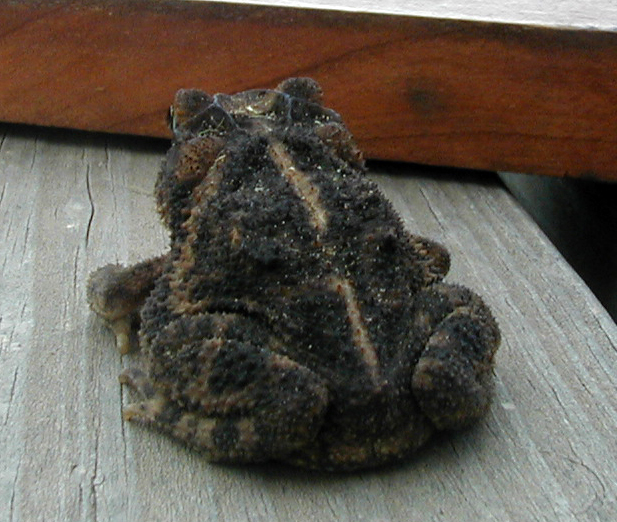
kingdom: Animalia
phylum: Chordata
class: Amphibia
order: Anura
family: Bufonidae
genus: Incilius
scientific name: Incilius nebulifer
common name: Gulf coast toad
